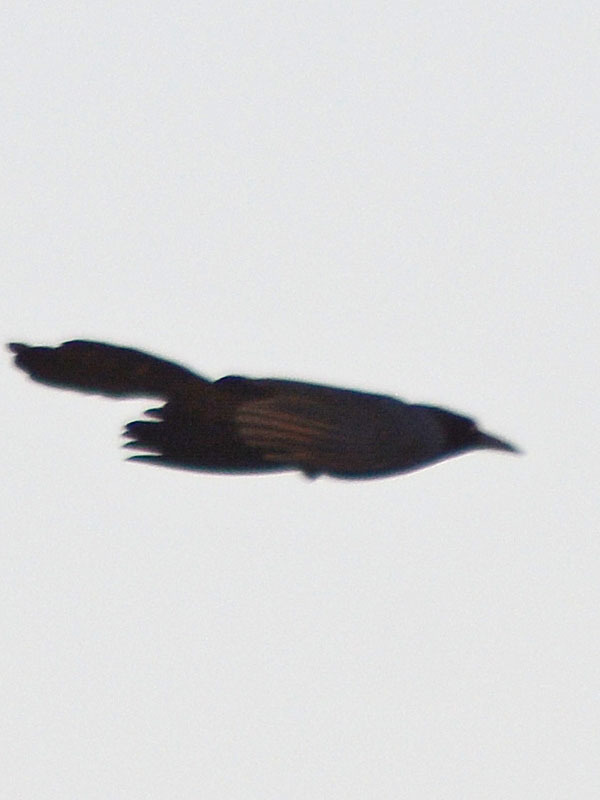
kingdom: Animalia
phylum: Chordata
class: Aves
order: Passeriformes
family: Icteridae
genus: Quiscalus
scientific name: Quiscalus mexicanus
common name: Great-tailed grackle
